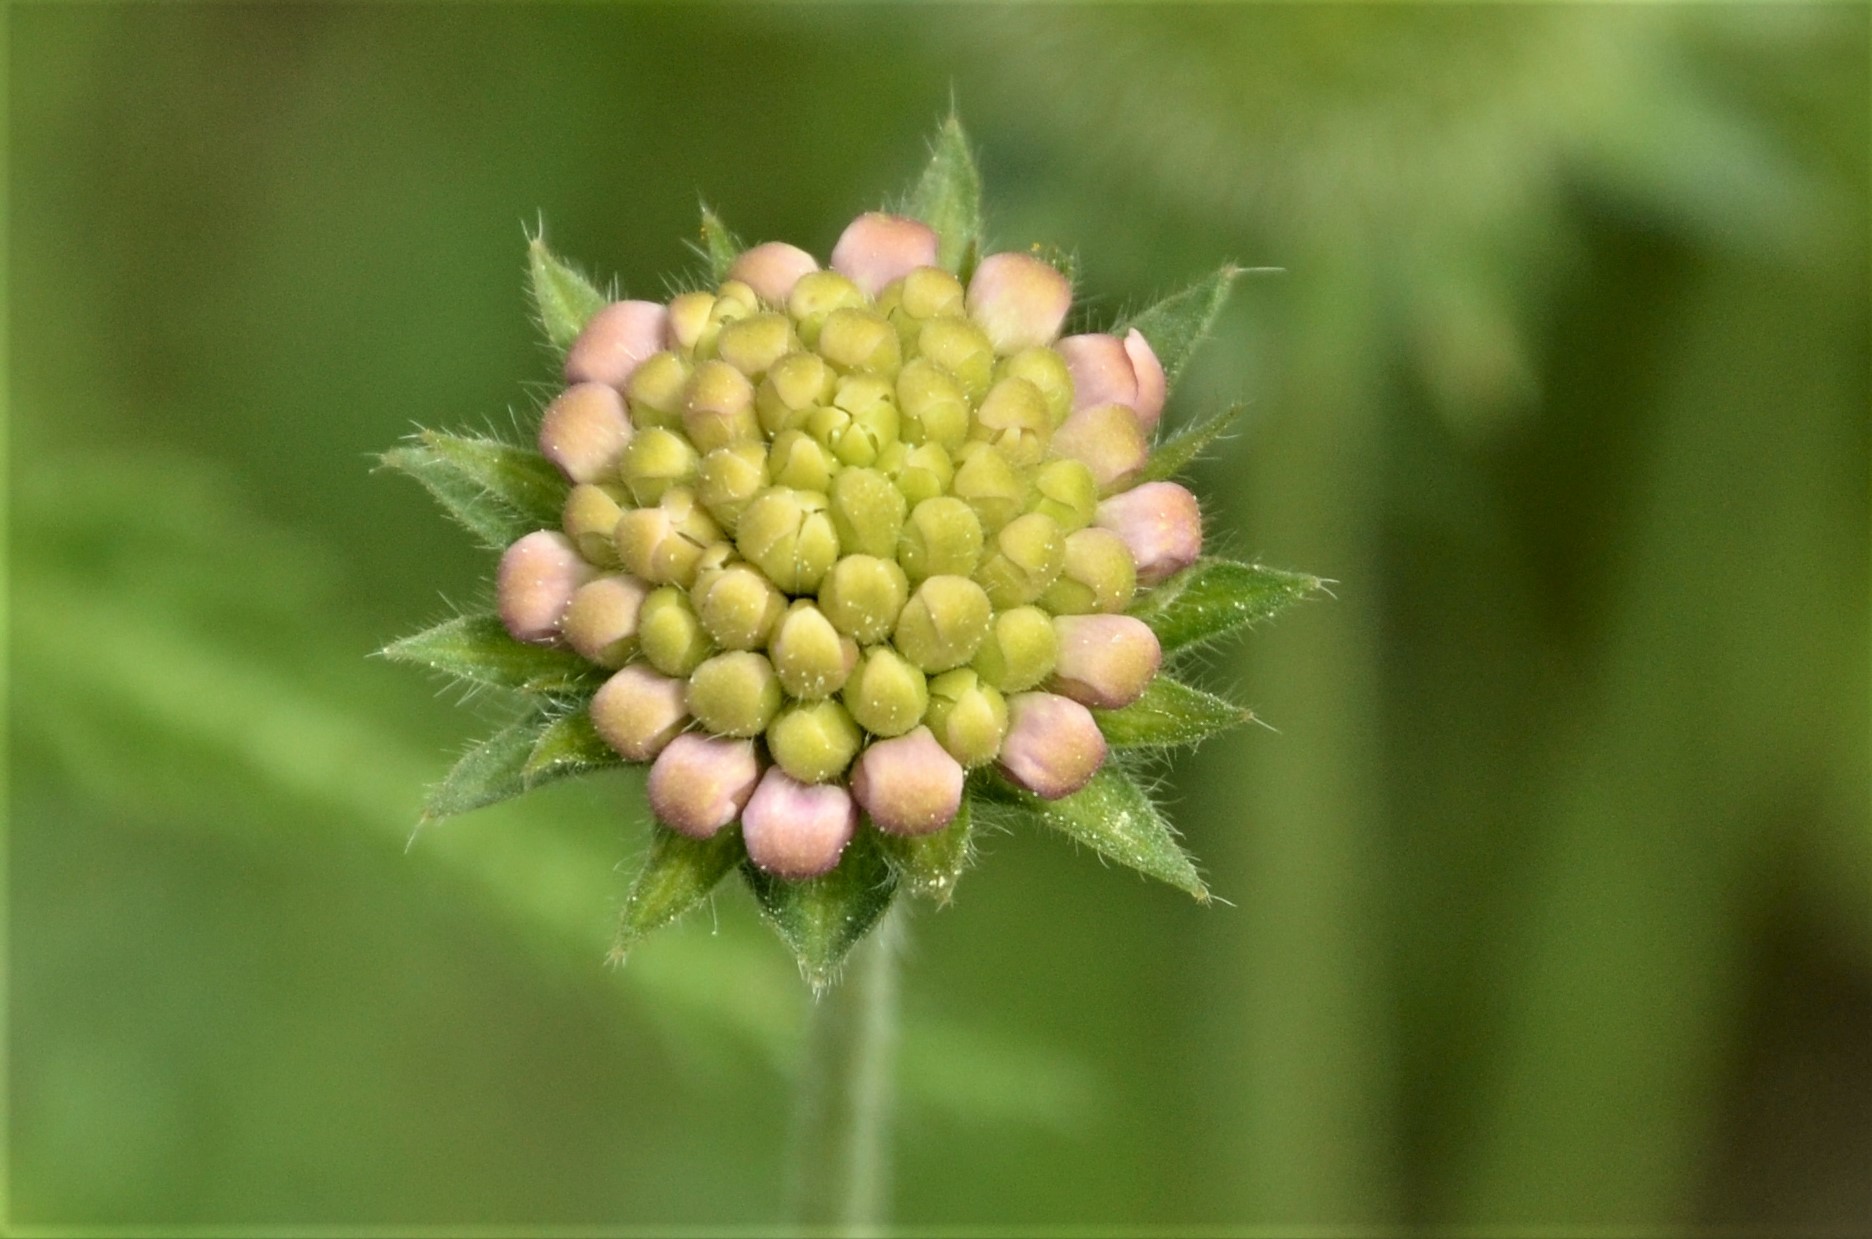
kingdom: Plantae
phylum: Tracheophyta
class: Magnoliopsida
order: Dipsacales
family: Caprifoliaceae
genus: Knautia
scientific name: Knautia arvensis
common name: Field scabiosa
